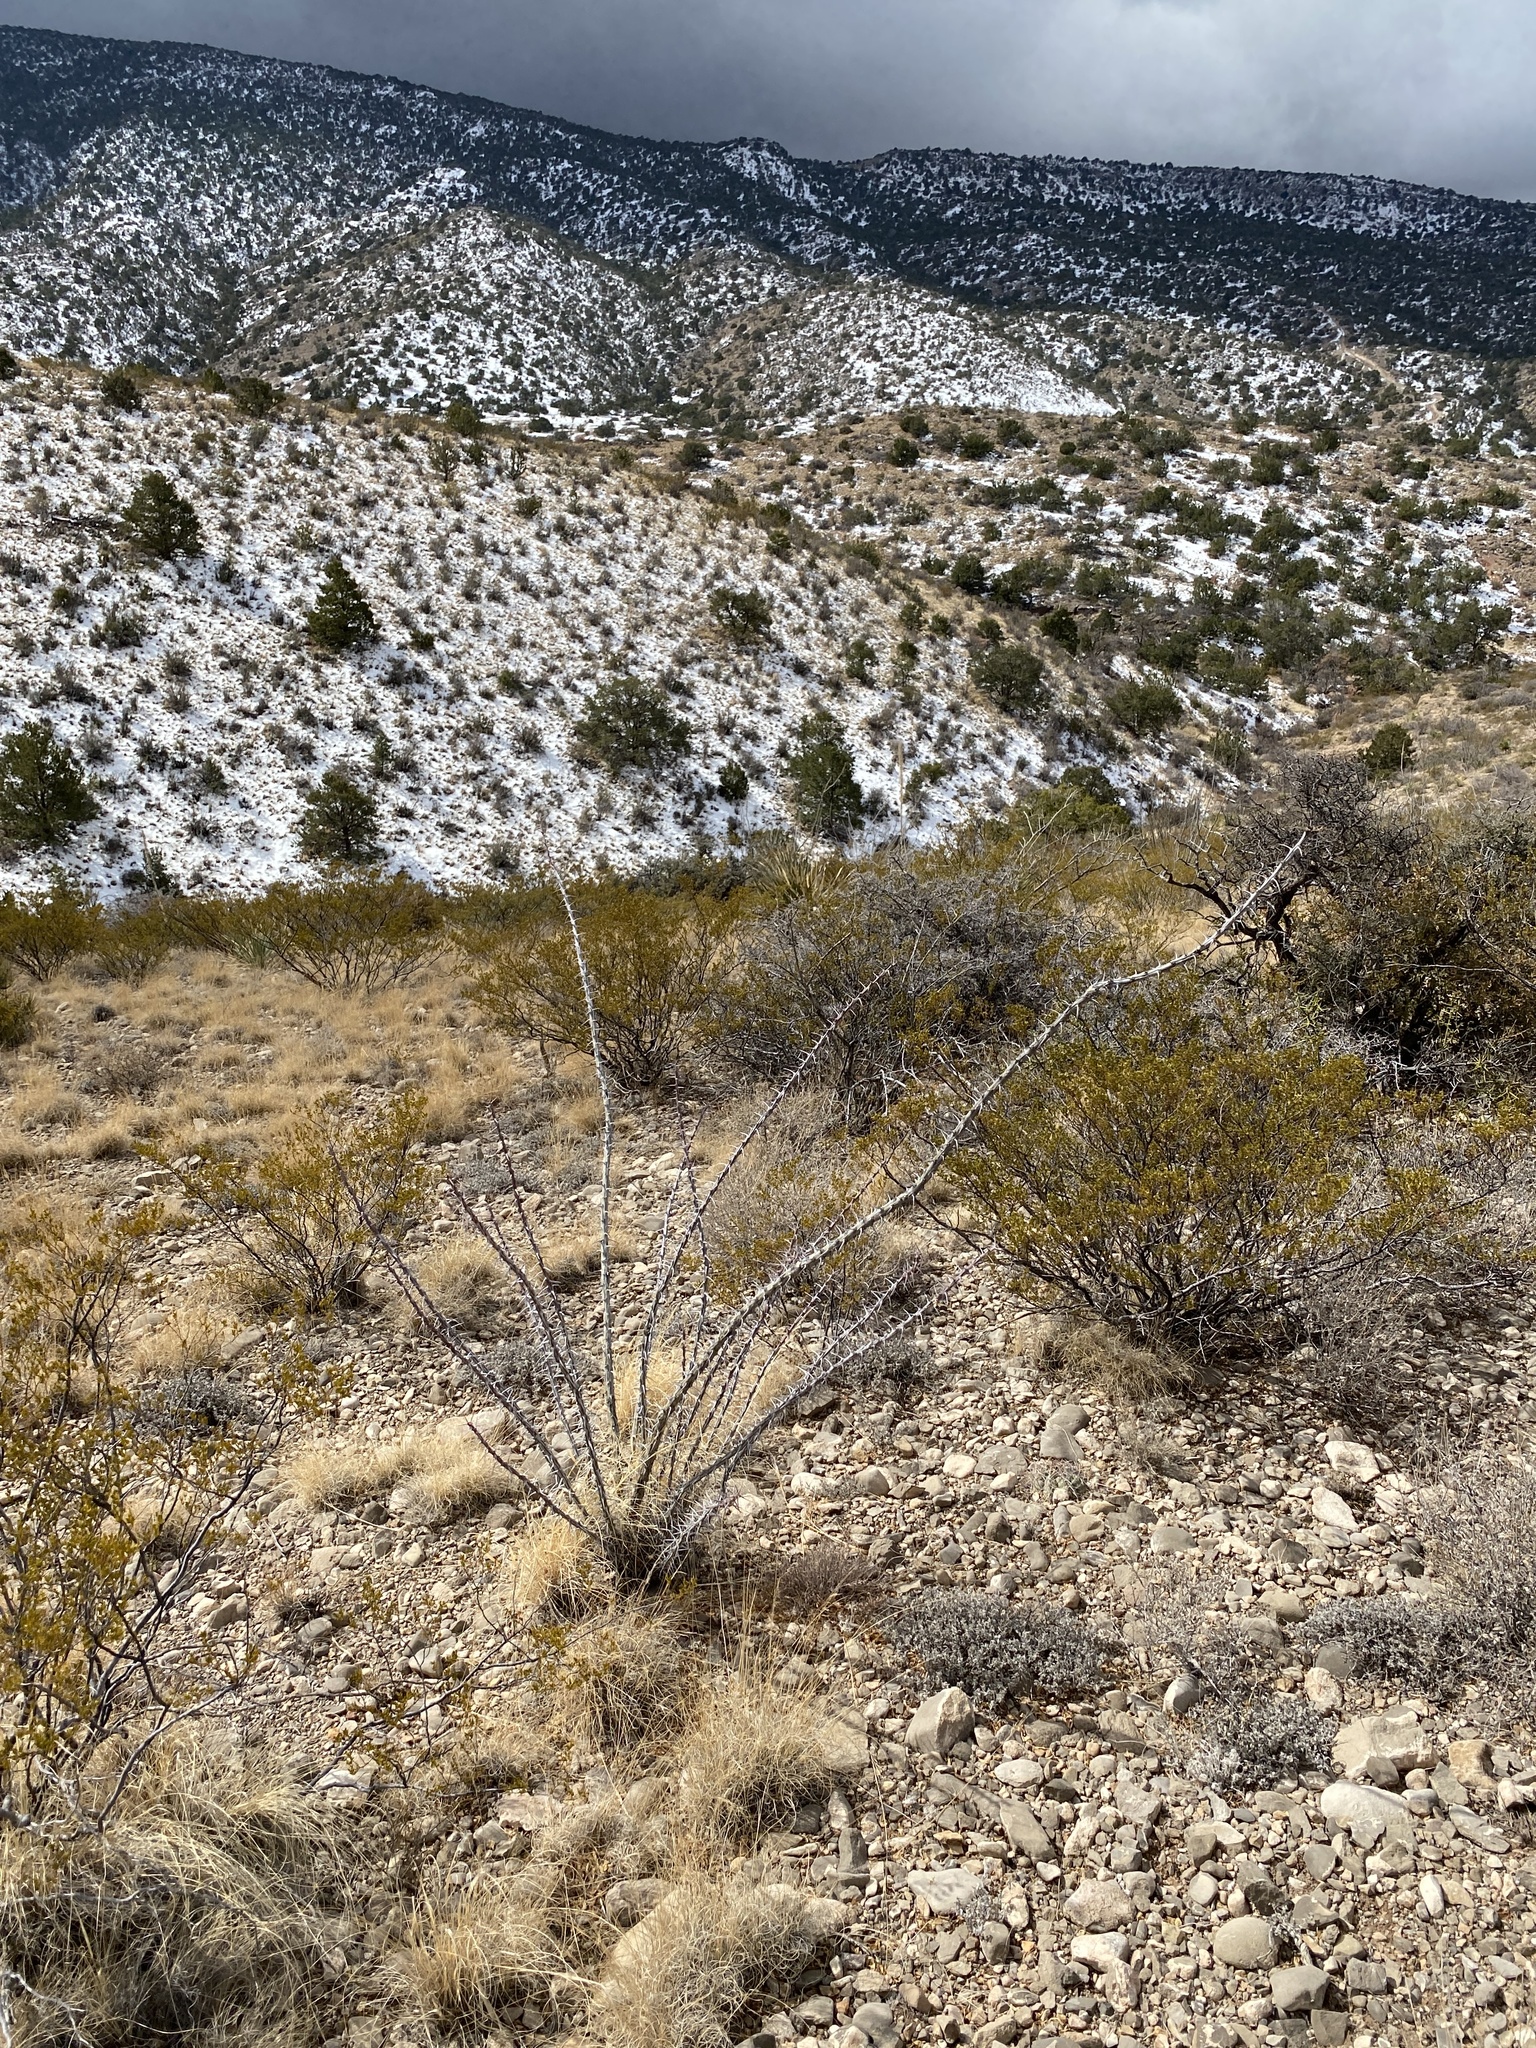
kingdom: Plantae
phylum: Tracheophyta
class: Magnoliopsida
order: Ericales
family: Fouquieriaceae
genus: Fouquieria
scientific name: Fouquieria splendens
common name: Vine-cactus
